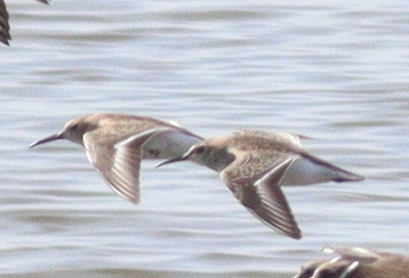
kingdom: Animalia
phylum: Chordata
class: Aves
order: Charadriiformes
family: Scolopacidae
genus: Calidris
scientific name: Calidris alpina
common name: Dunlin
